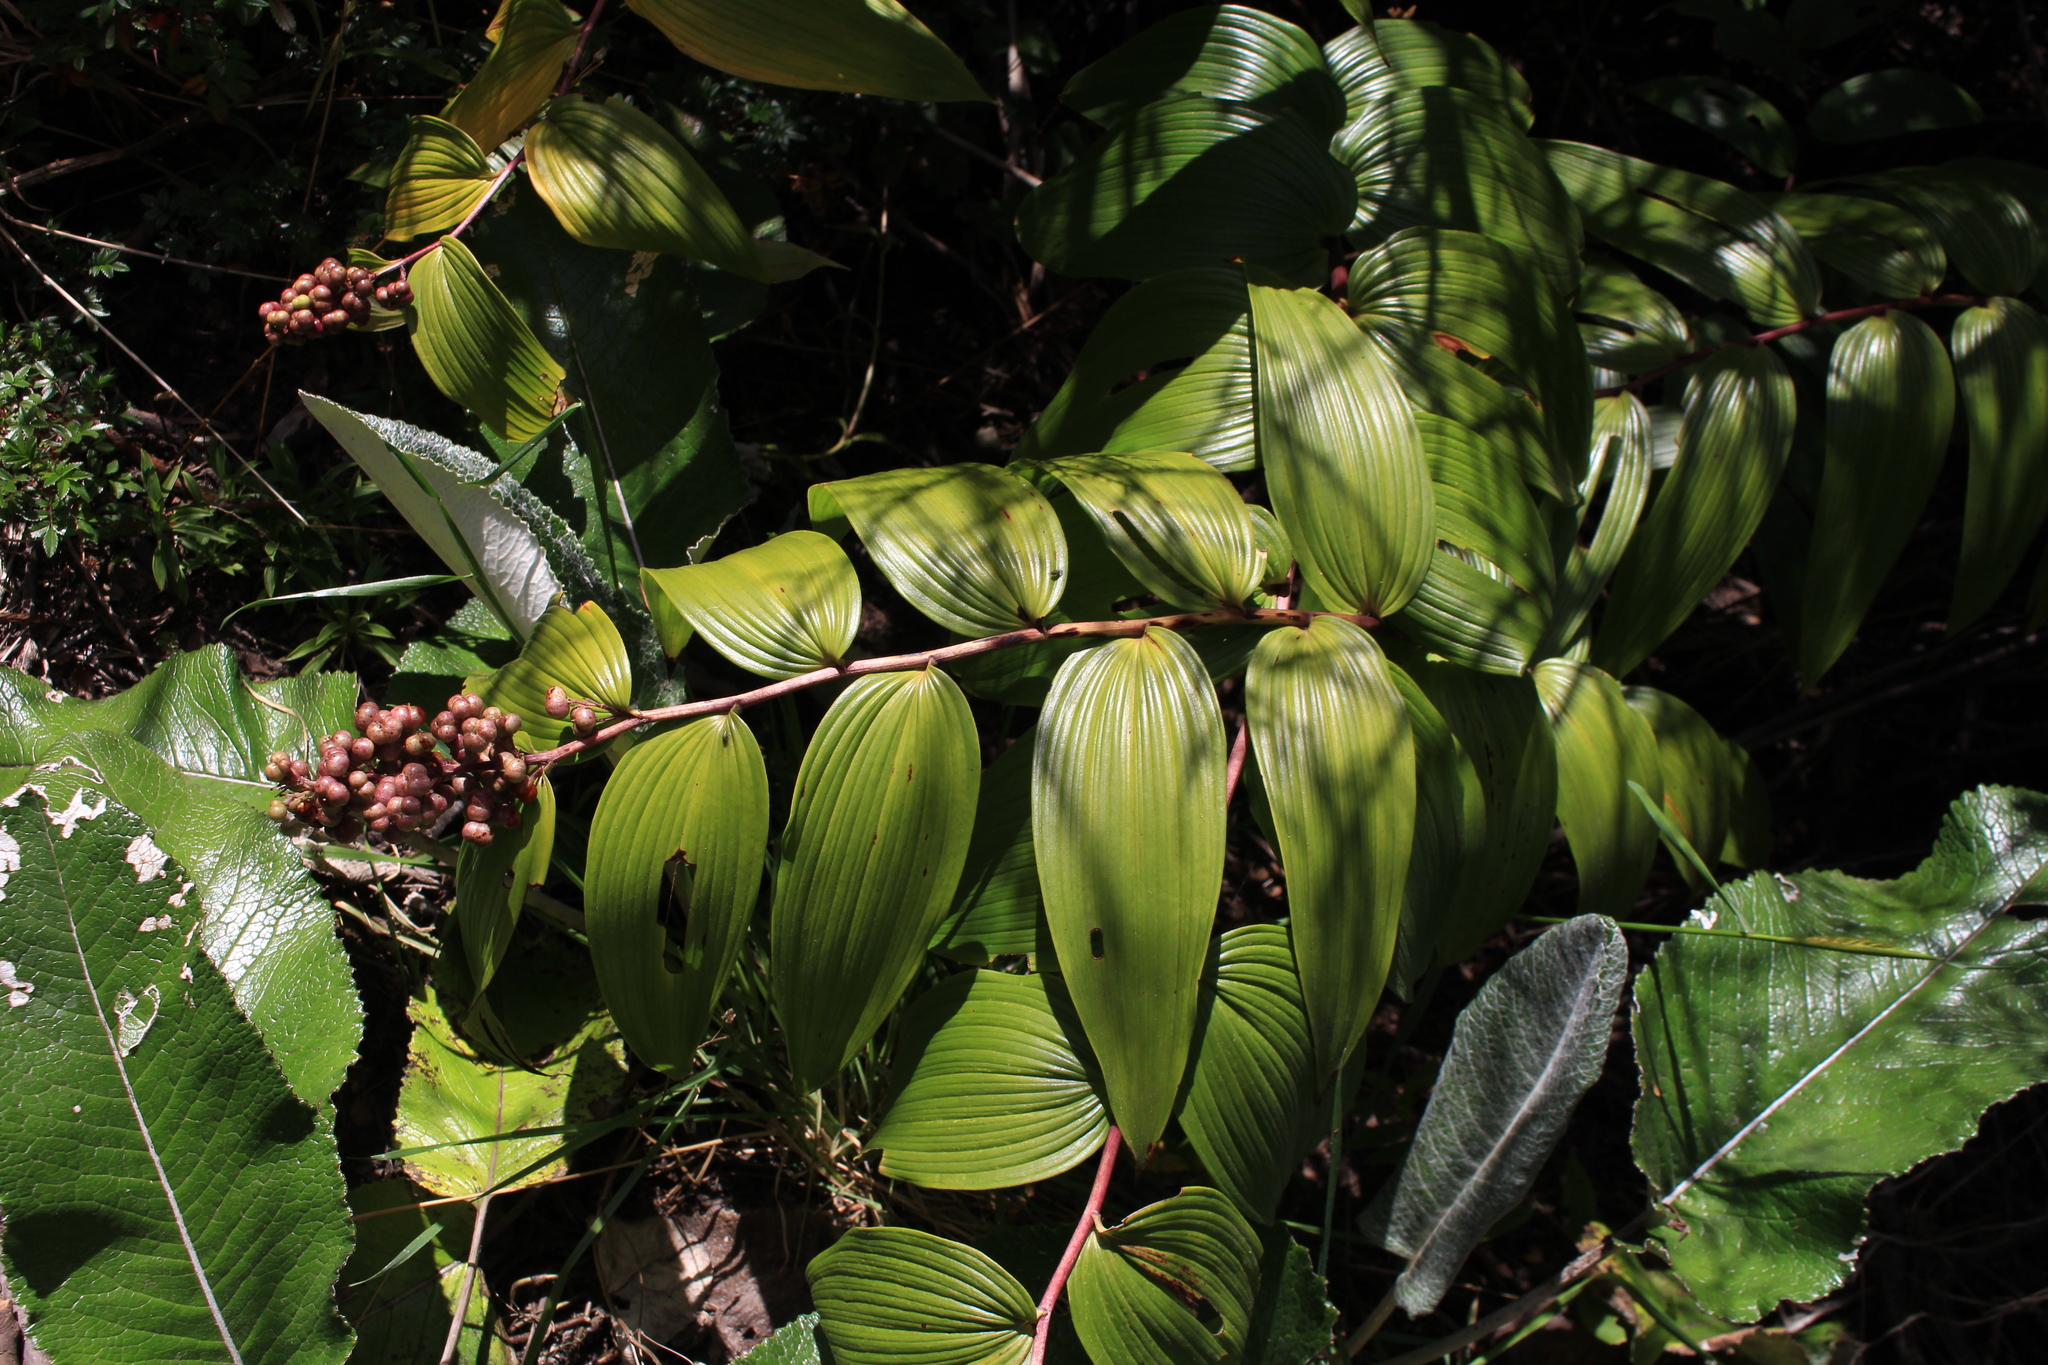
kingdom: Plantae
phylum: Tracheophyta
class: Liliopsida
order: Asparagales
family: Asparagaceae
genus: Maianthemum
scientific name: Maianthemum gigas
